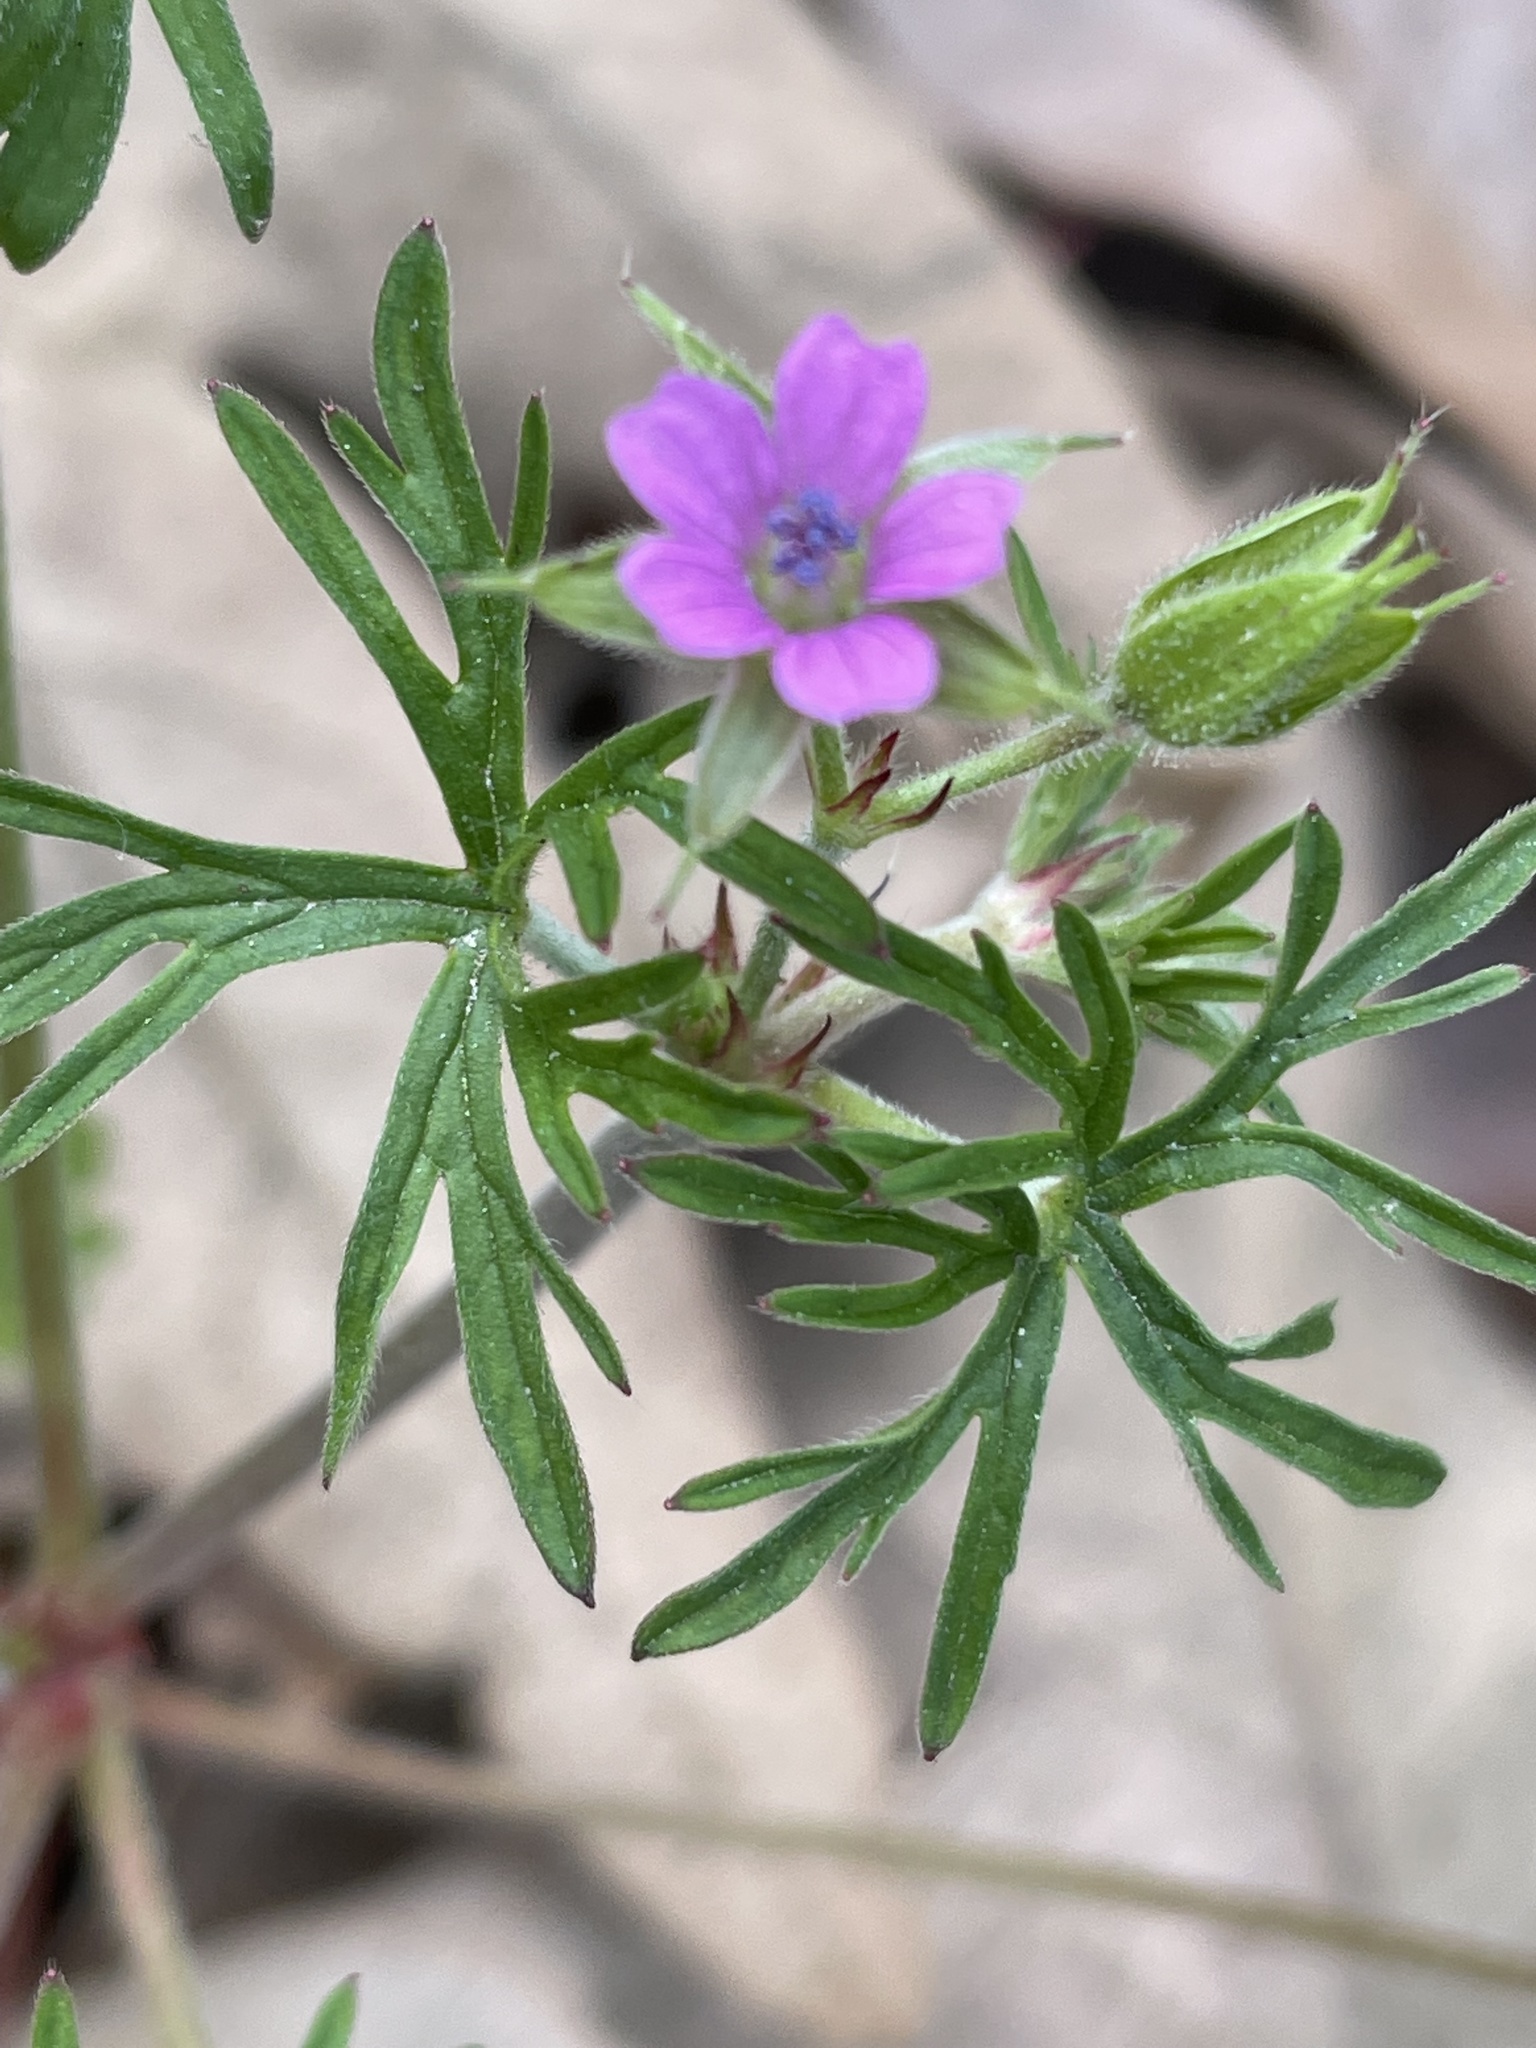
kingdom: Plantae
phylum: Tracheophyta
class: Magnoliopsida
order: Geraniales
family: Geraniaceae
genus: Geranium
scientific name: Geranium dissectum
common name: Cut-leaved crane's-bill
